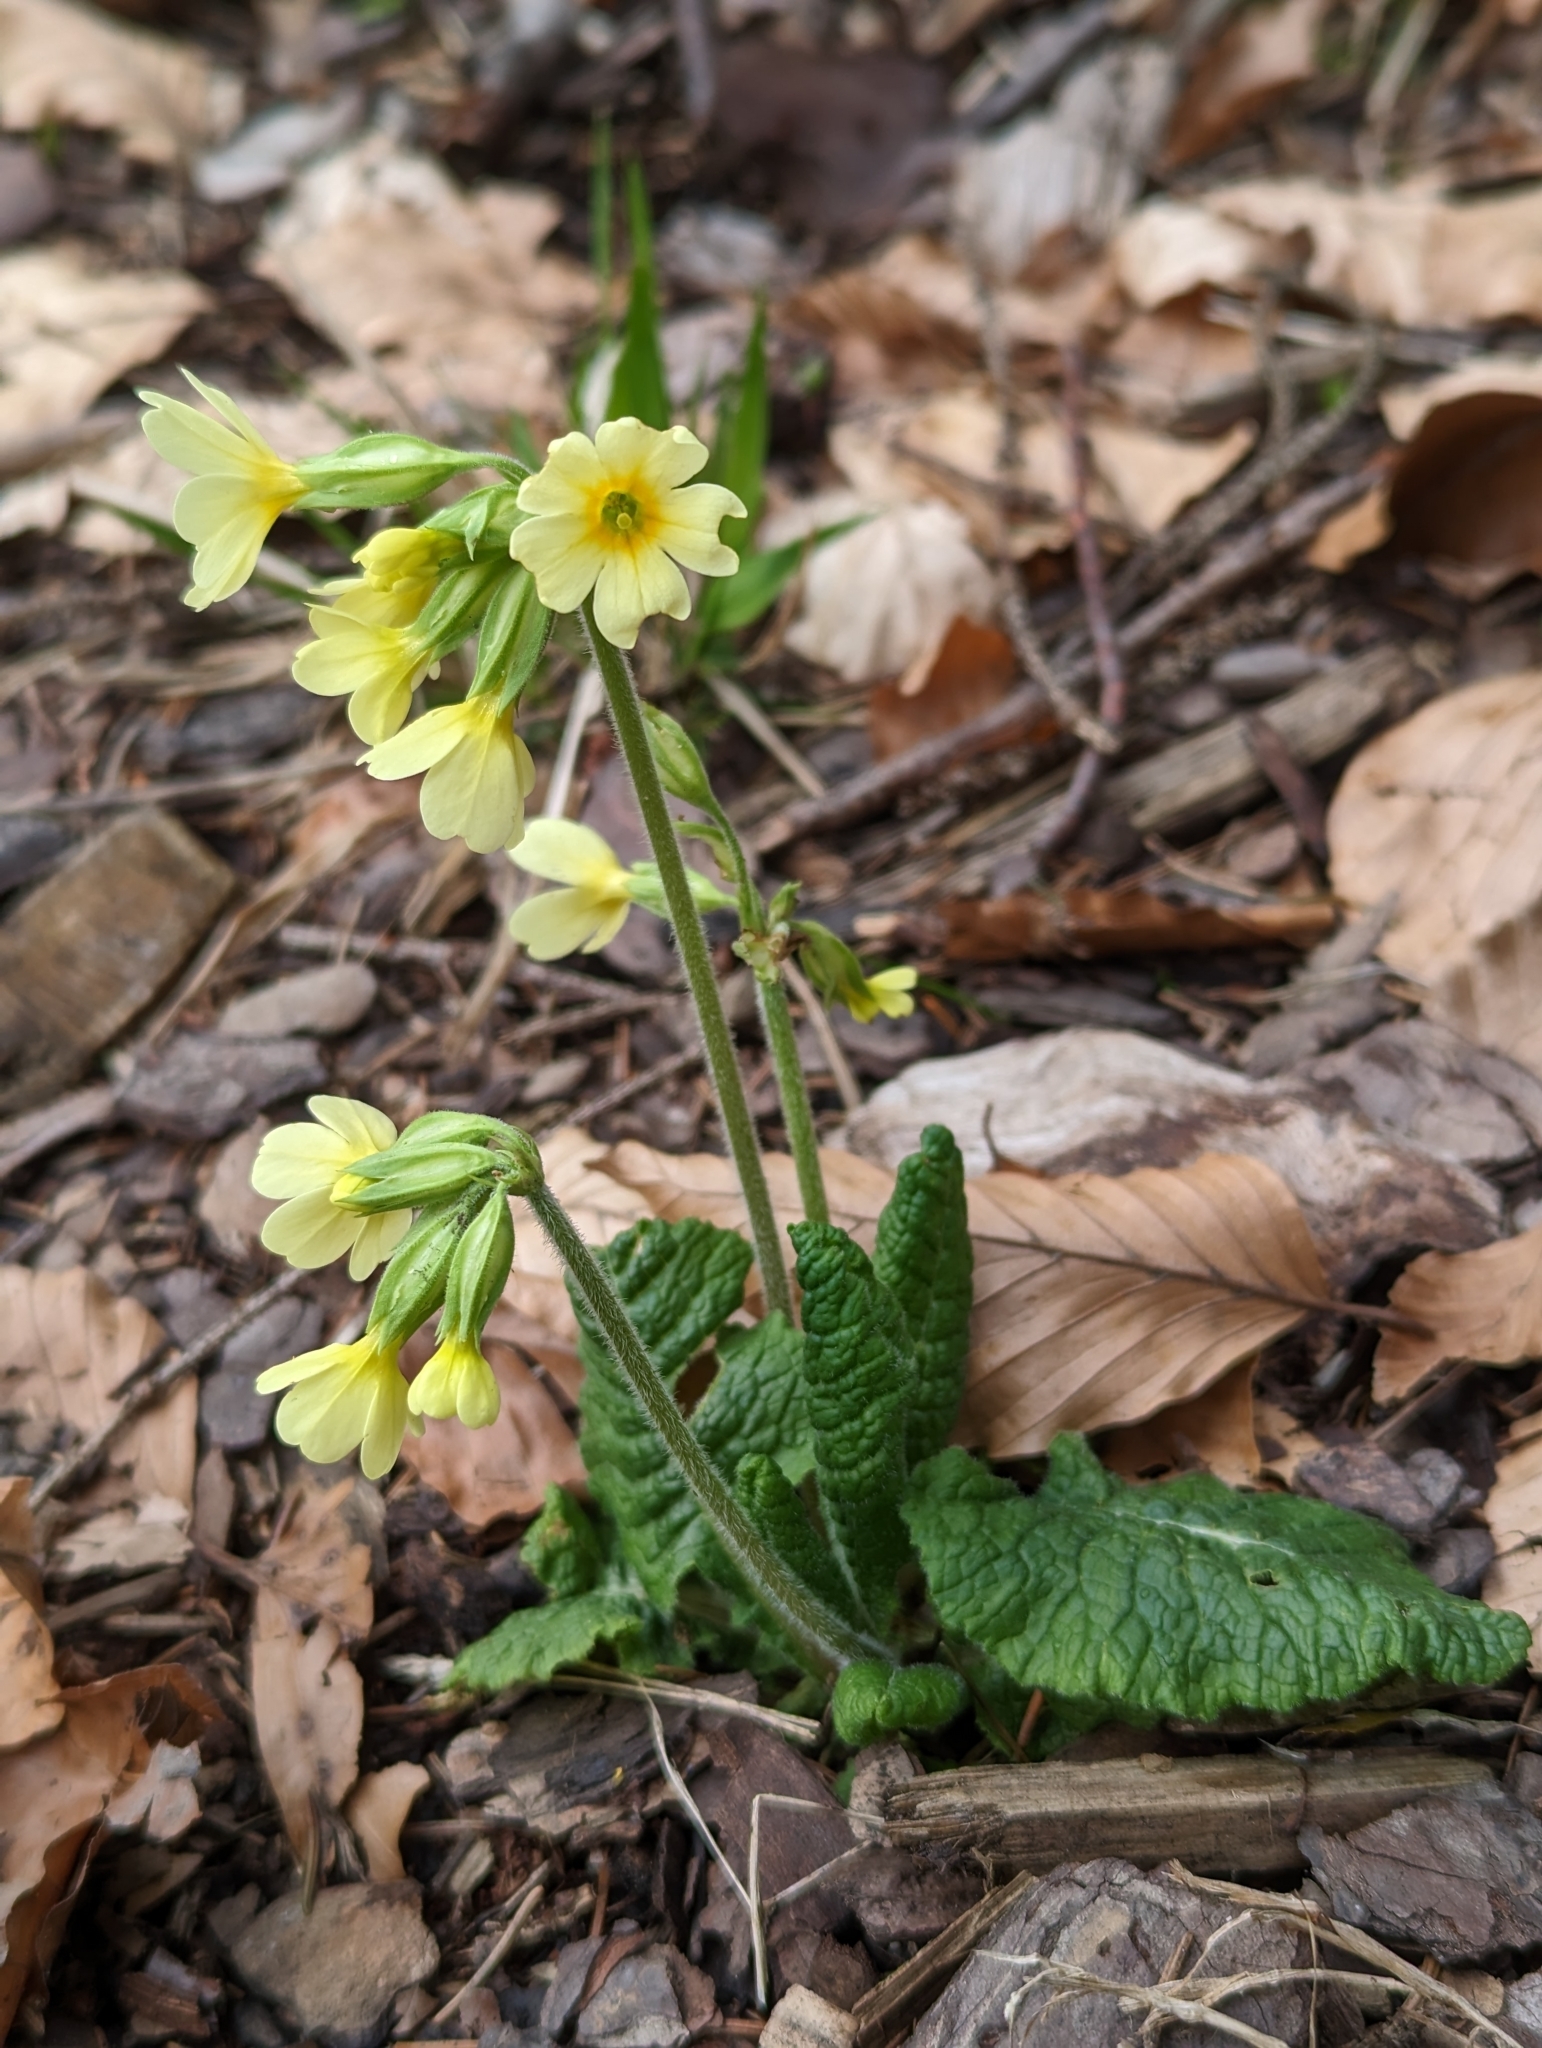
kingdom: Plantae
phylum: Tracheophyta
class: Magnoliopsida
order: Ericales
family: Primulaceae
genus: Primula
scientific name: Primula elatior
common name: Oxlip
